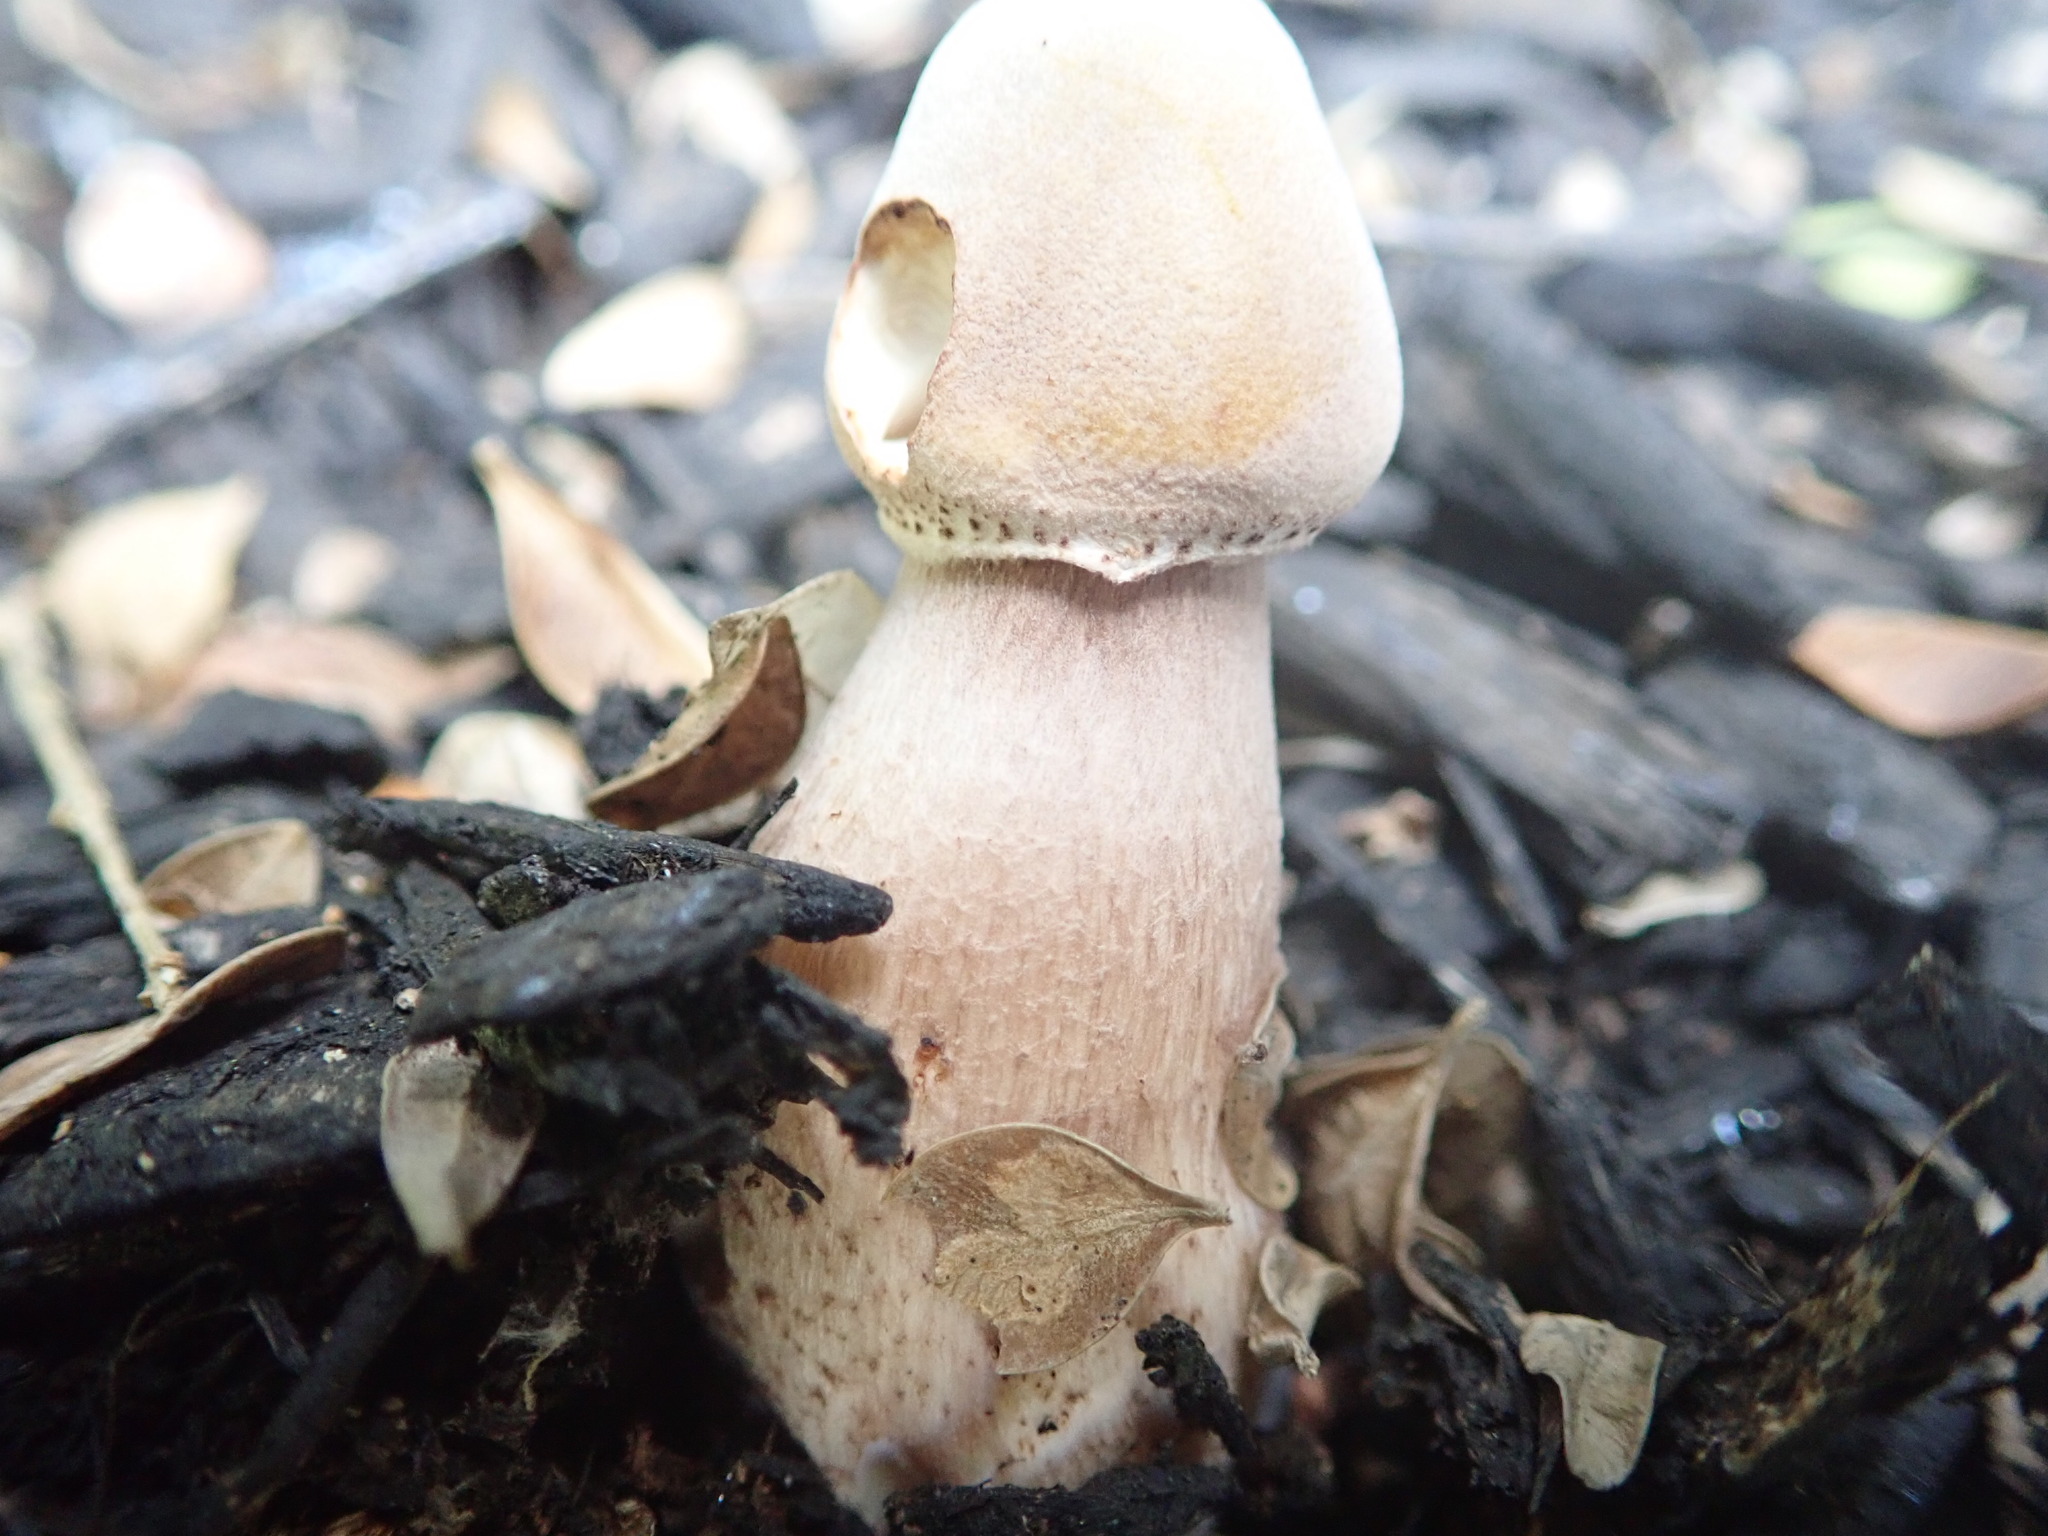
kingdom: Fungi
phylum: Basidiomycota
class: Agaricomycetes
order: Agaricales
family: Agaricaceae
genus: Leucoagaricus
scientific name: Leucoagaricus americanus
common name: Reddening lepiota
